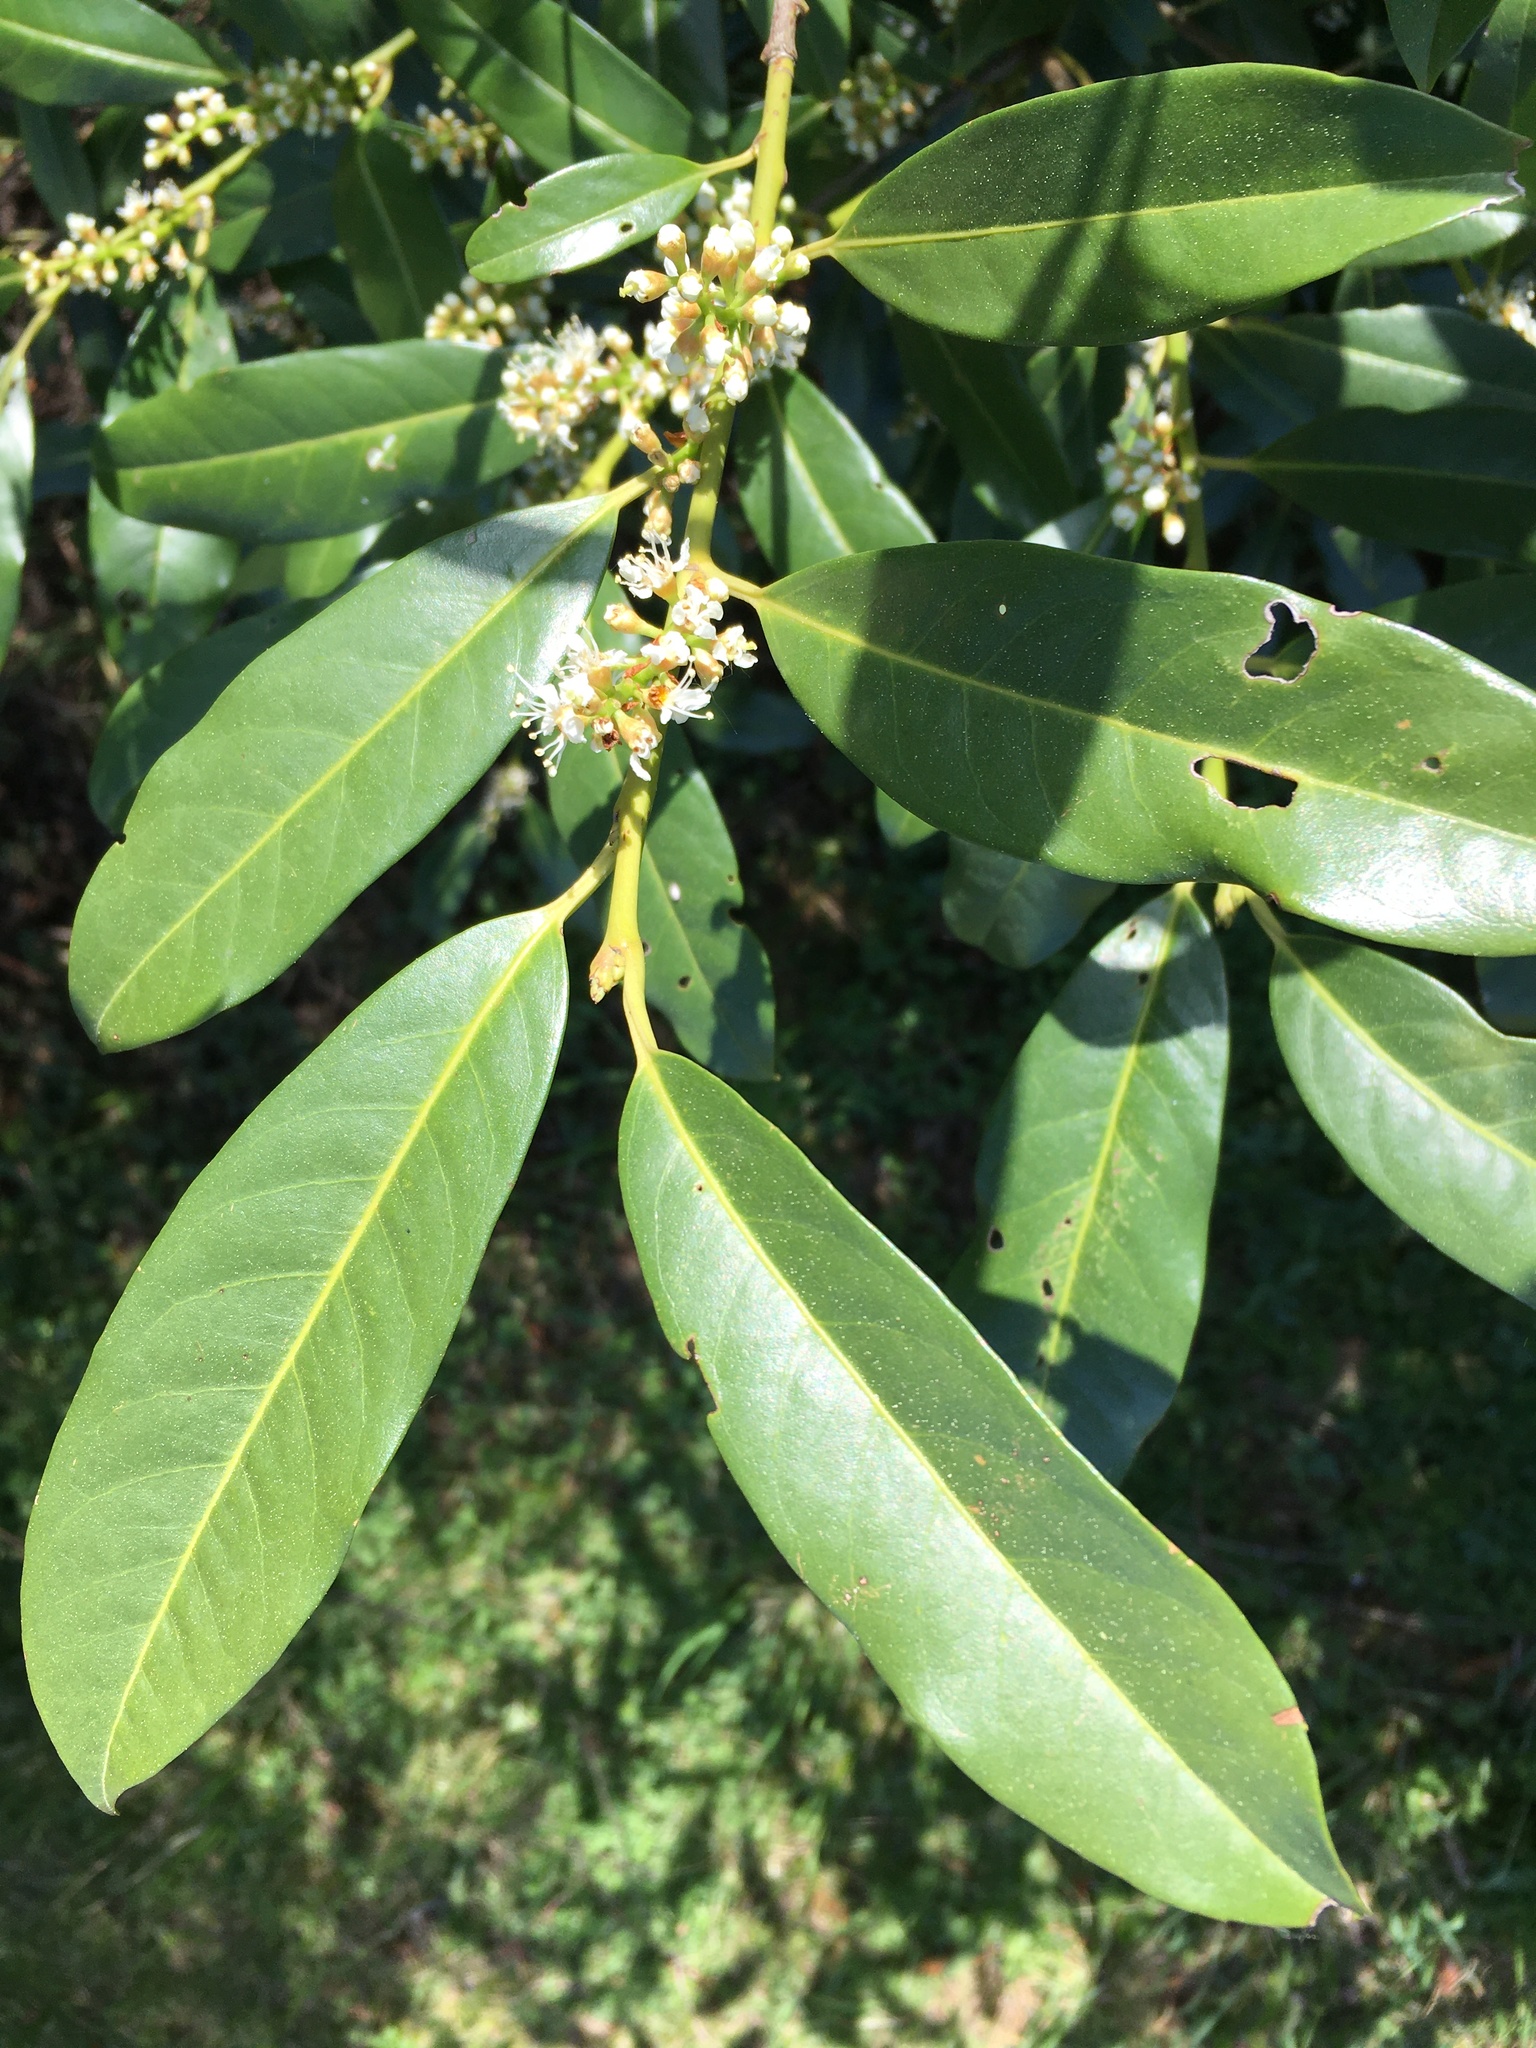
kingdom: Plantae
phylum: Tracheophyta
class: Magnoliopsida
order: Rosales
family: Rosaceae
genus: Prunus
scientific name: Prunus laurocerasus
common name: Cherry laurel
